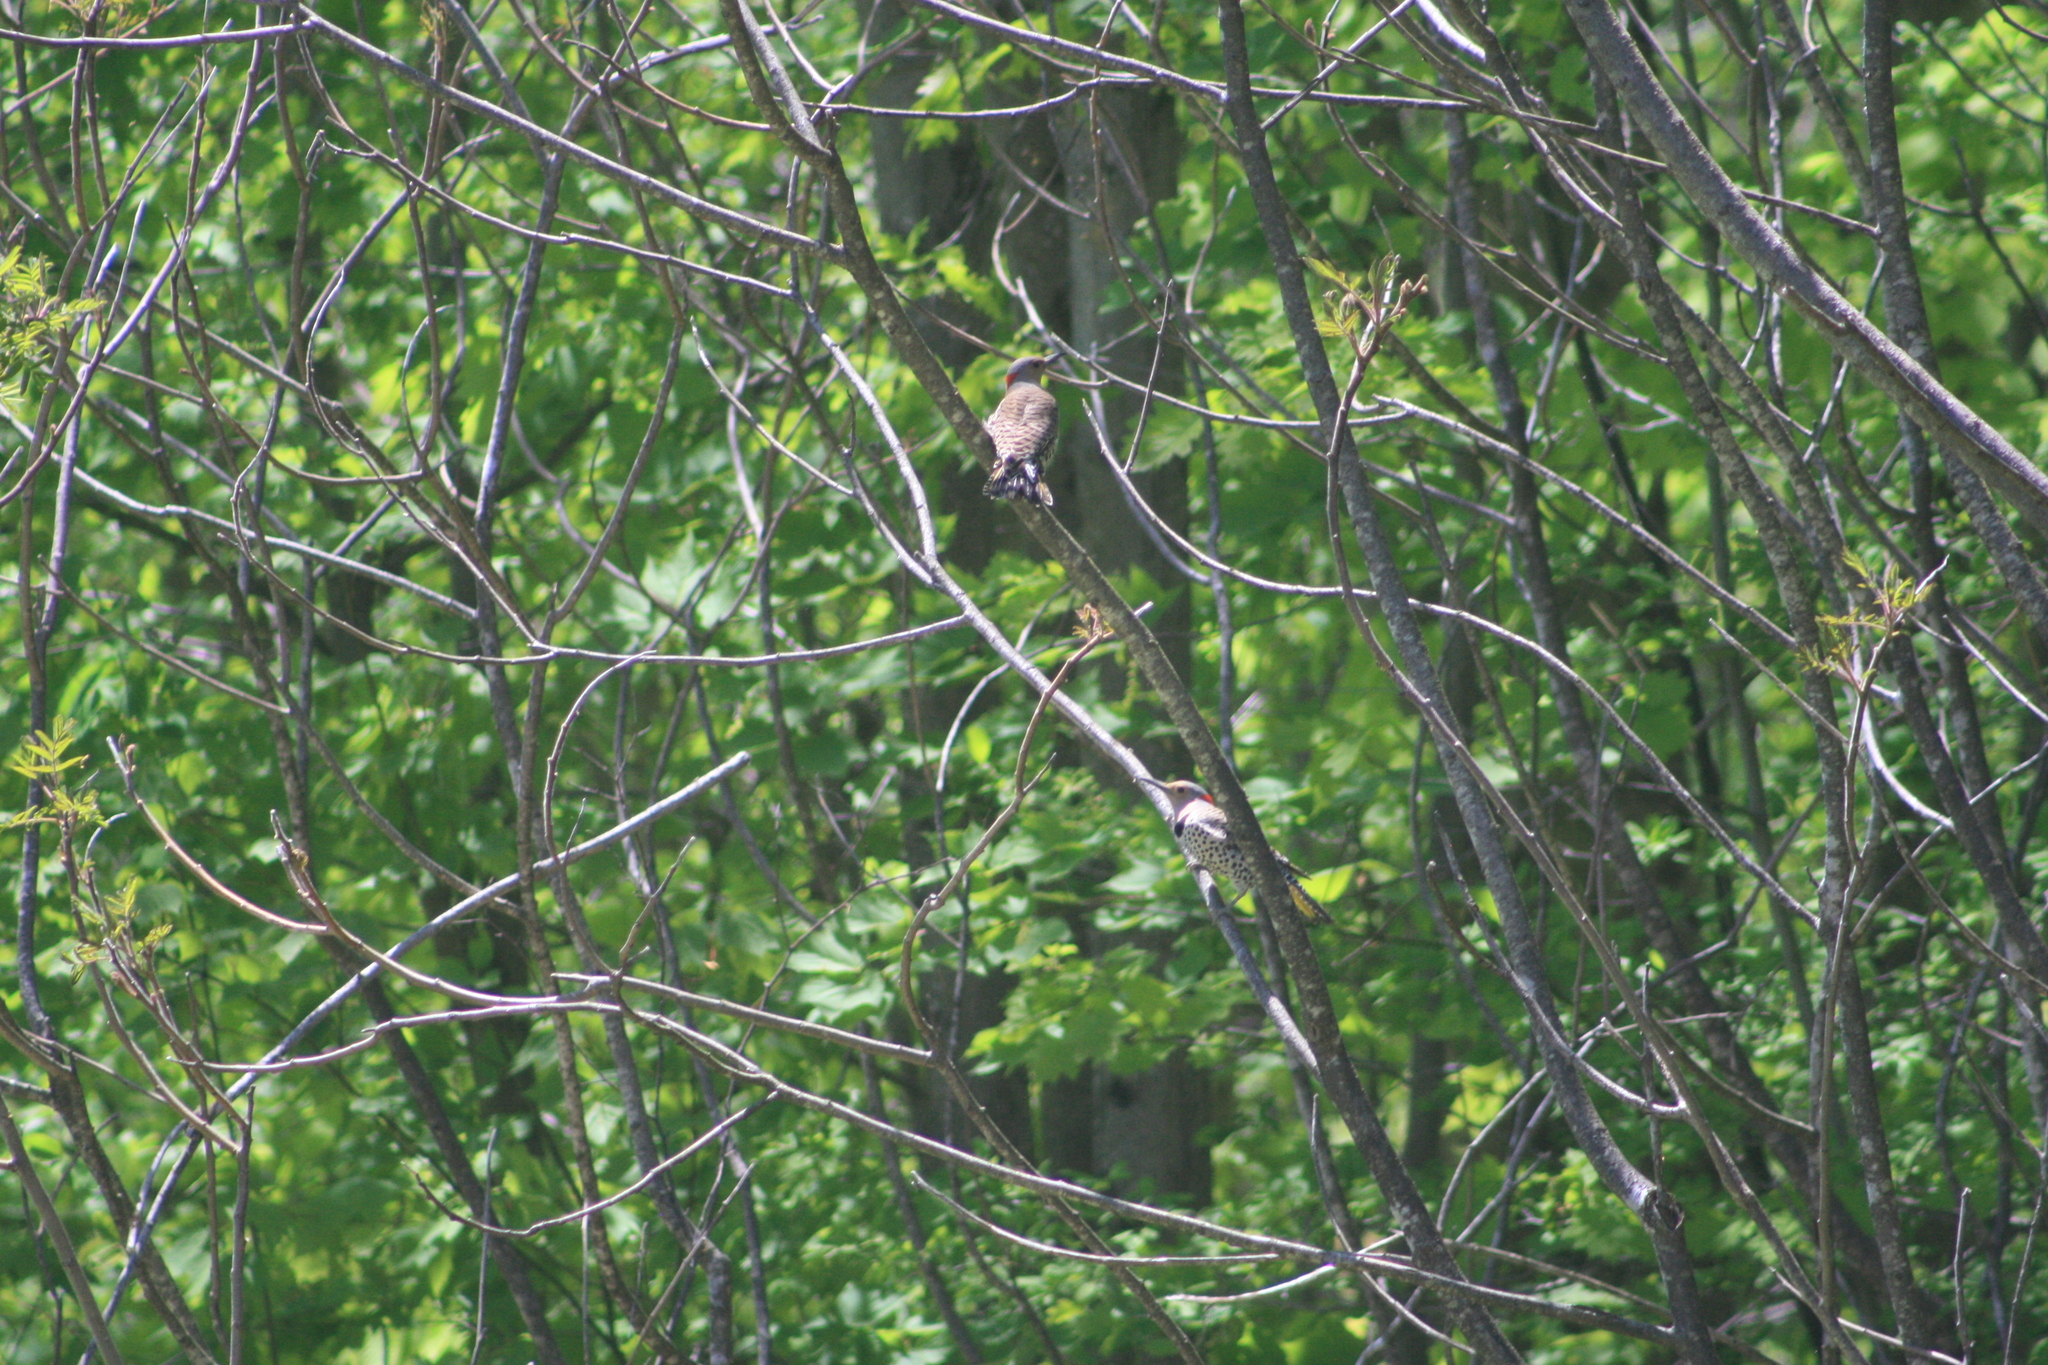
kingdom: Animalia
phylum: Chordata
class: Aves
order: Piciformes
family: Picidae
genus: Colaptes
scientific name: Colaptes auratus
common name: Northern flicker
